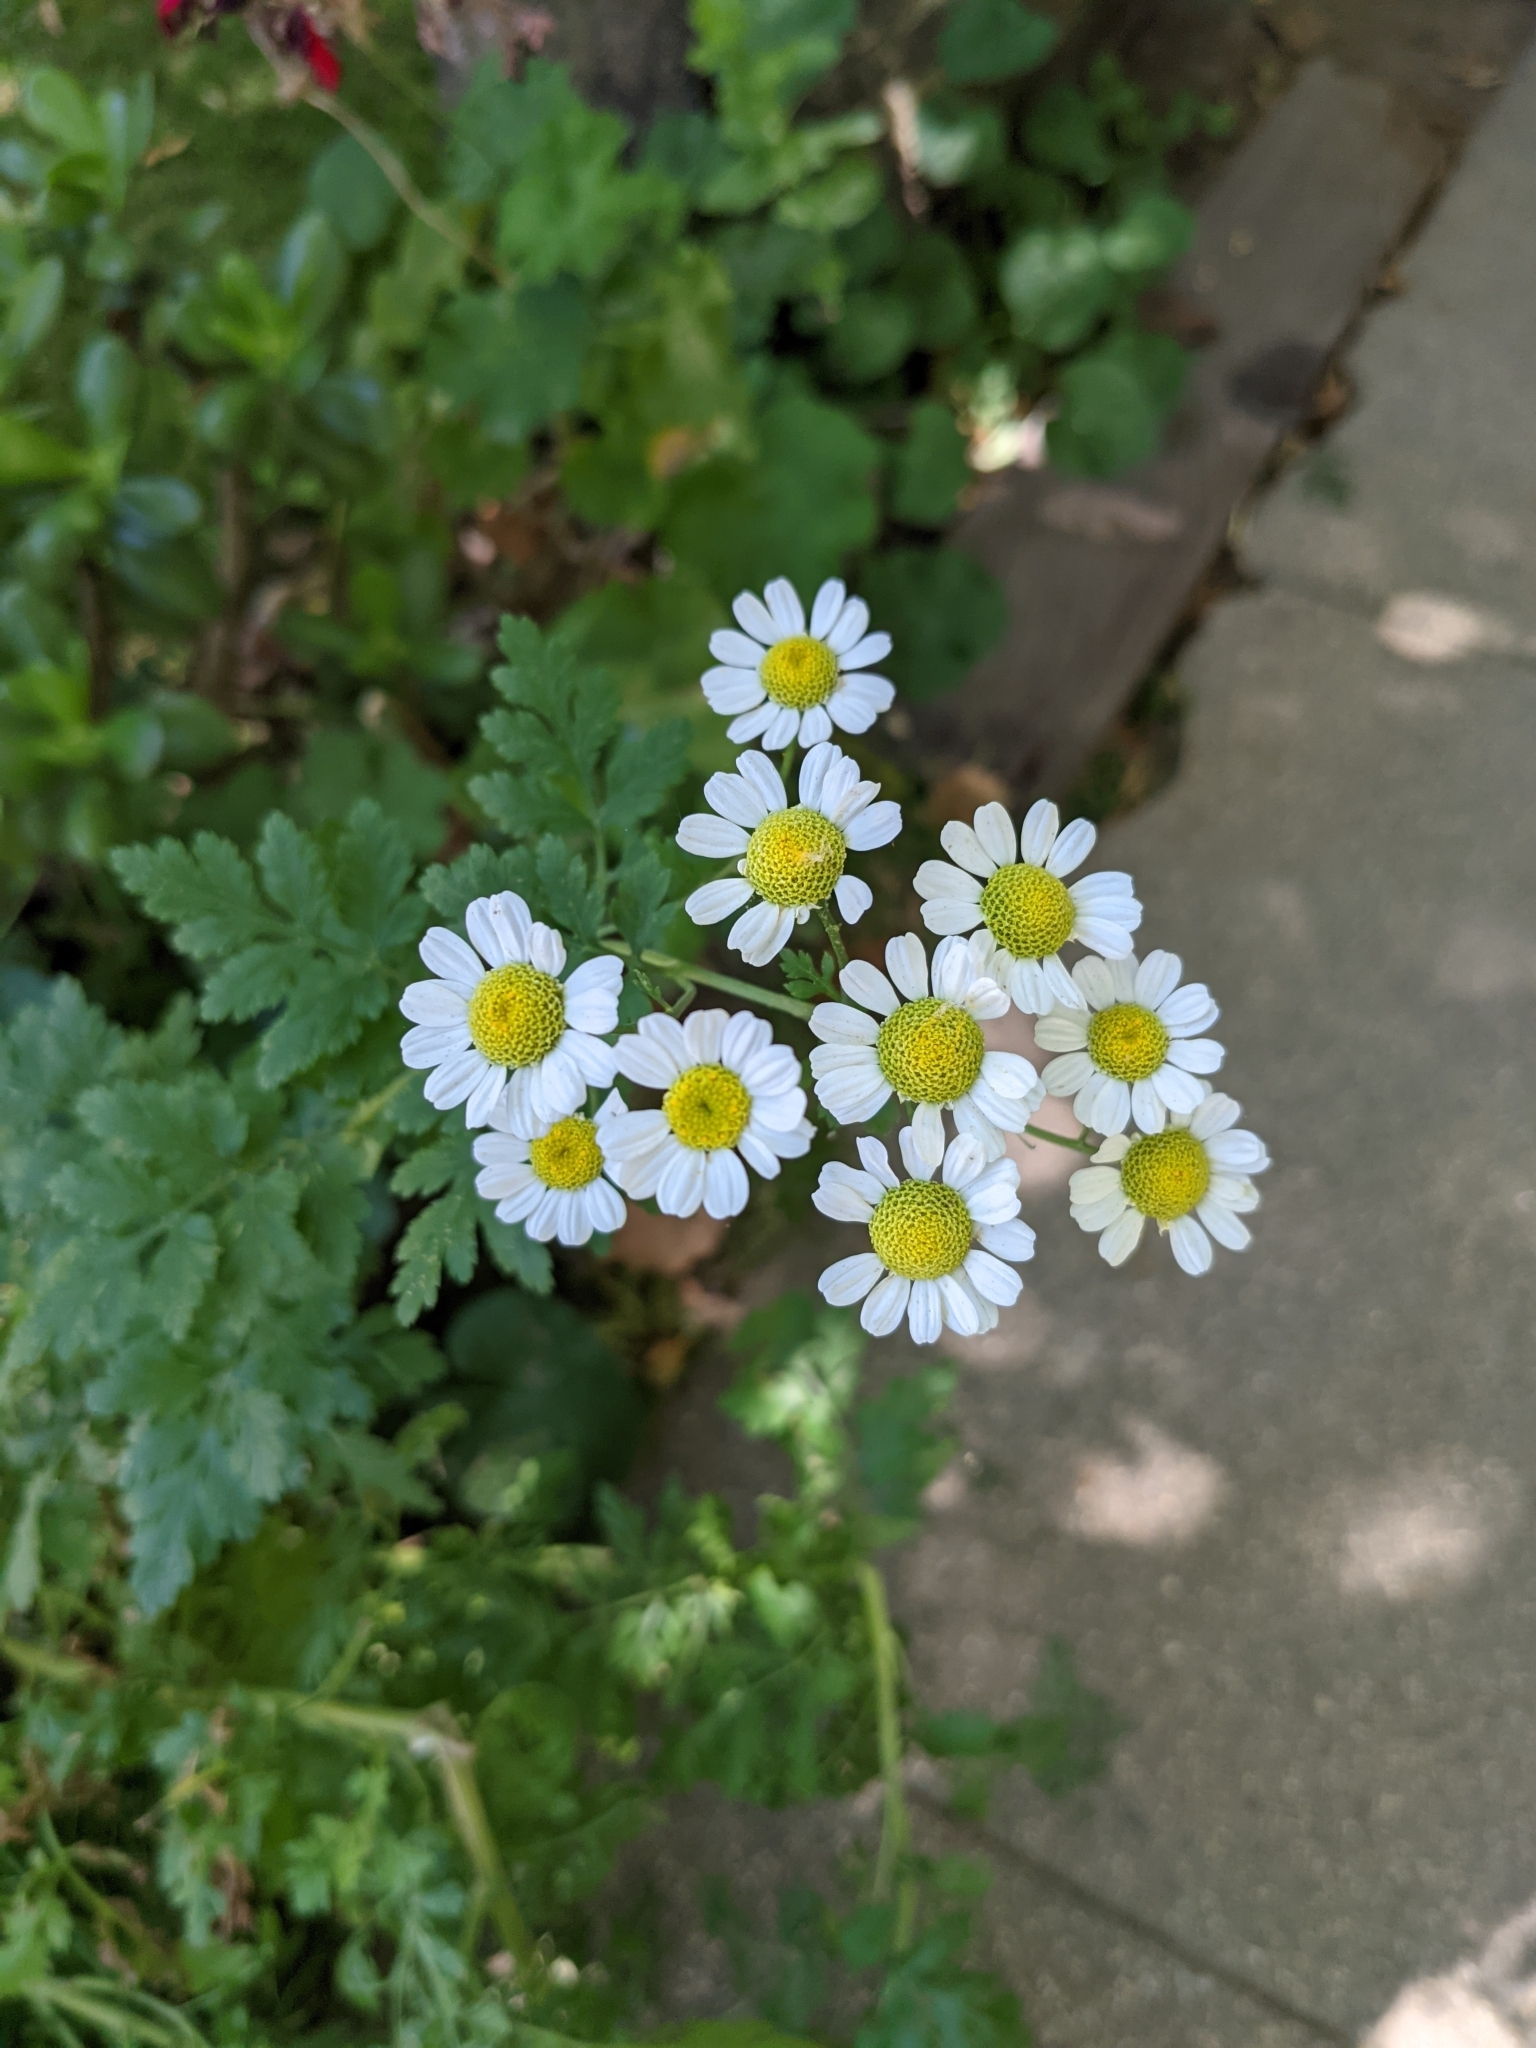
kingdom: Plantae
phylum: Tracheophyta
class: Magnoliopsida
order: Asterales
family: Asteraceae
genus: Tanacetum
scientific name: Tanacetum parthenium
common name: Feverfew
